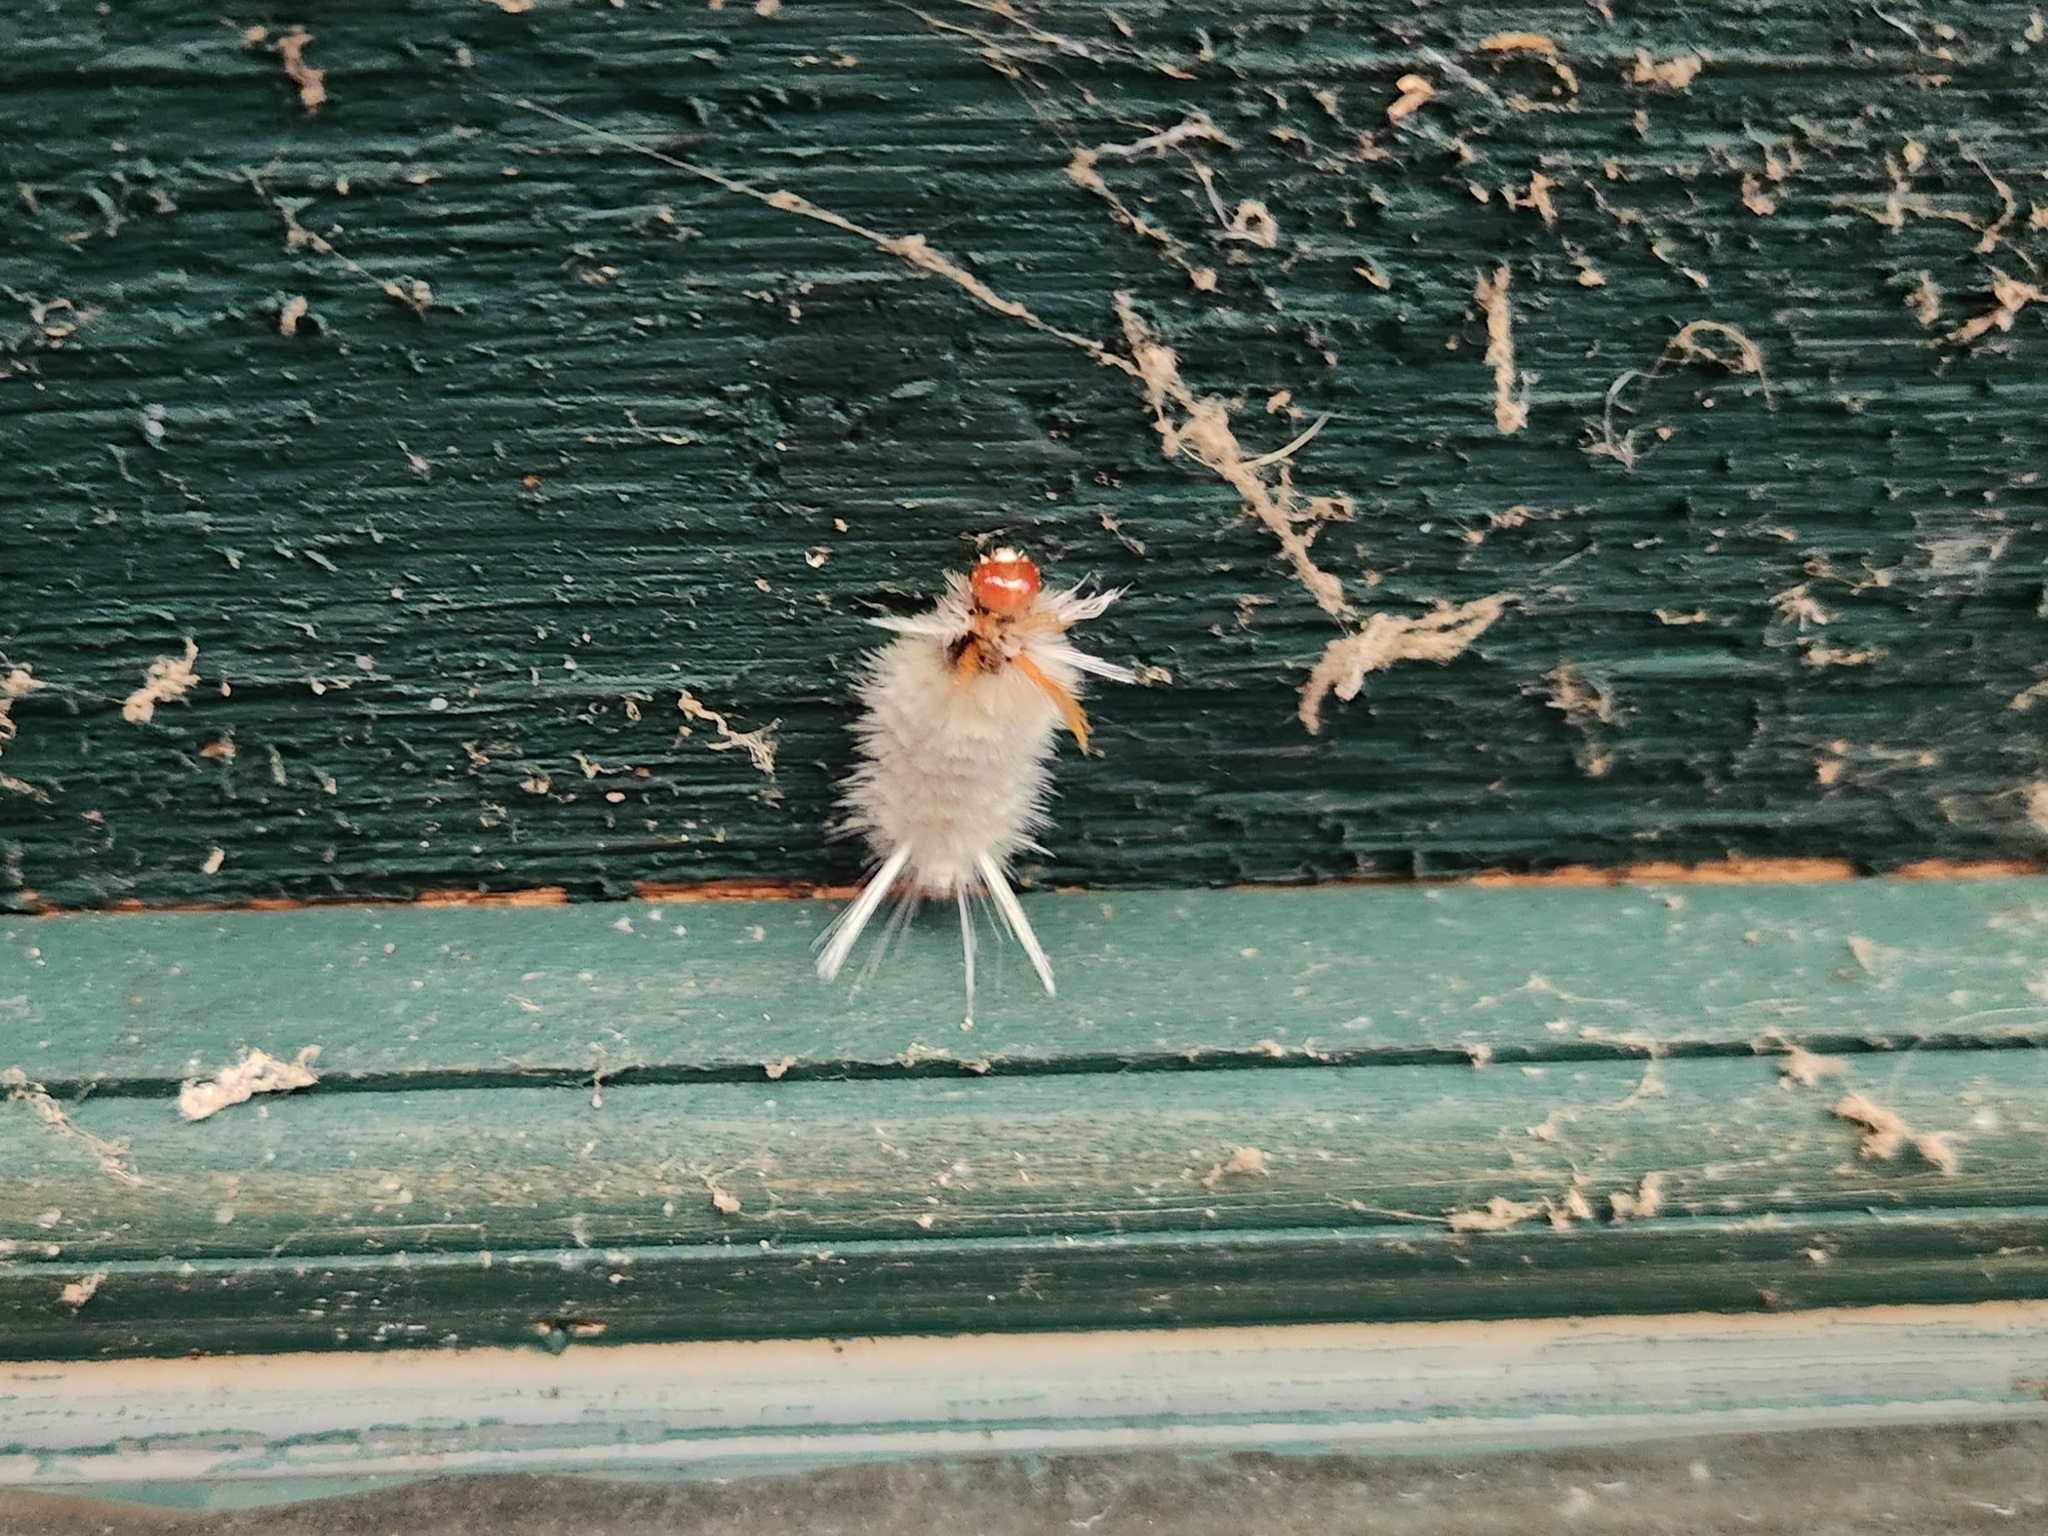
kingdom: Animalia
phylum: Arthropoda
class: Insecta
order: Lepidoptera
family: Erebidae
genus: Halysidota
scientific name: Halysidota harrisii
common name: Sycamore tussock moth
